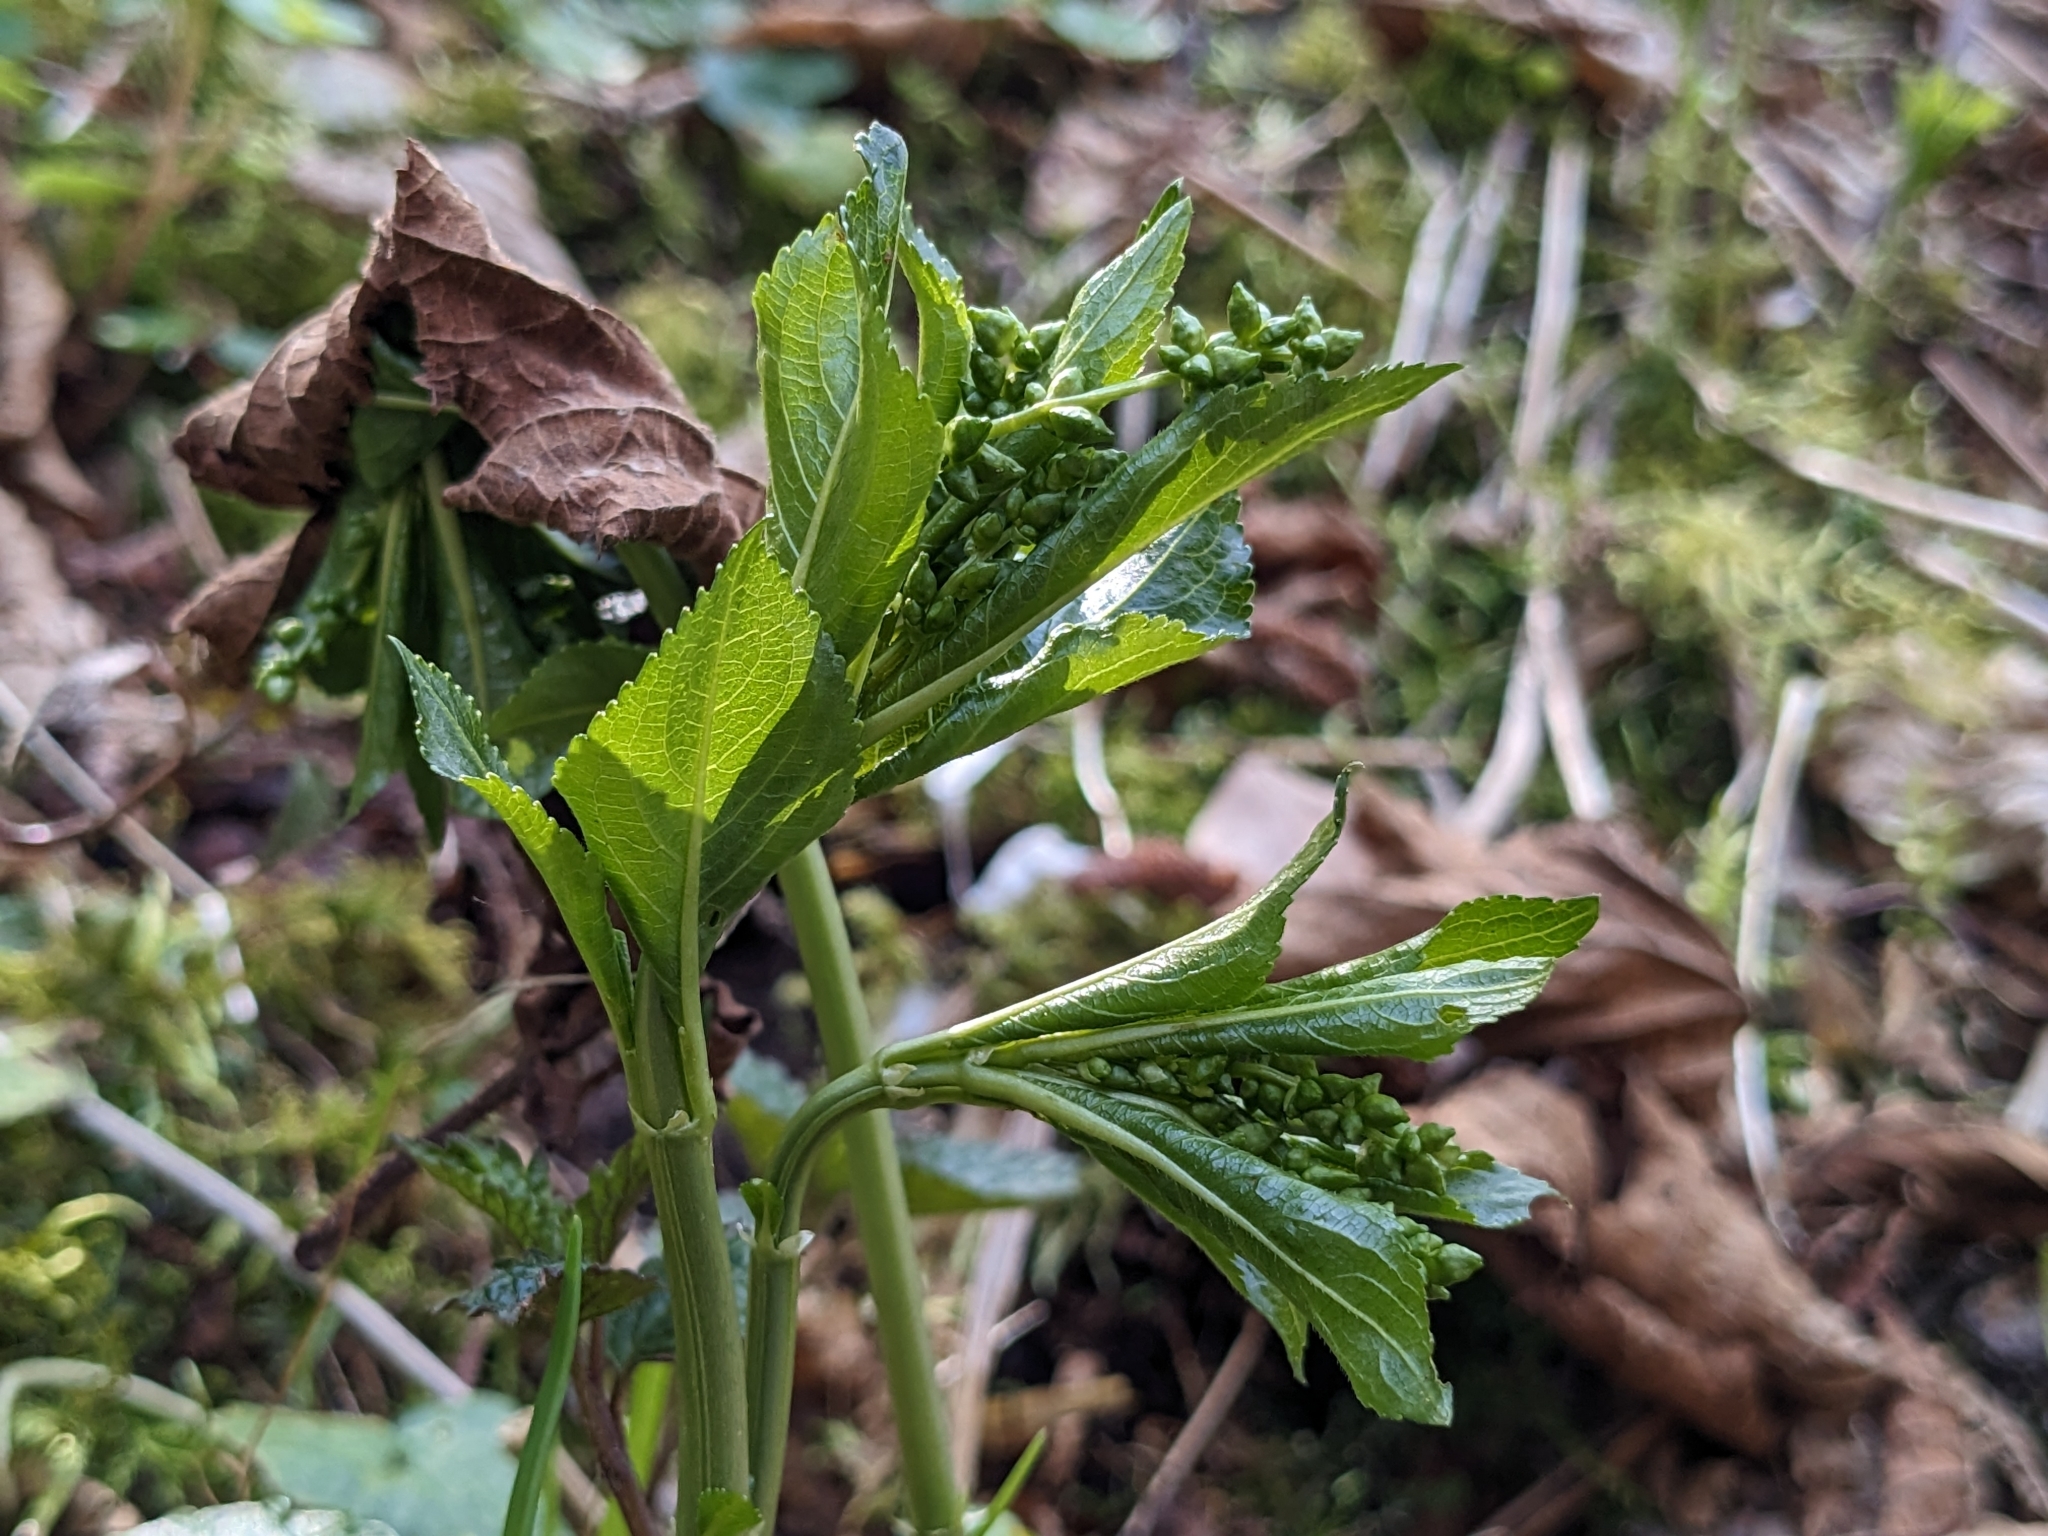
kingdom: Plantae
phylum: Tracheophyta
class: Magnoliopsida
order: Malpighiales
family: Euphorbiaceae
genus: Mercurialis
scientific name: Mercurialis perennis
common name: Dog mercury
